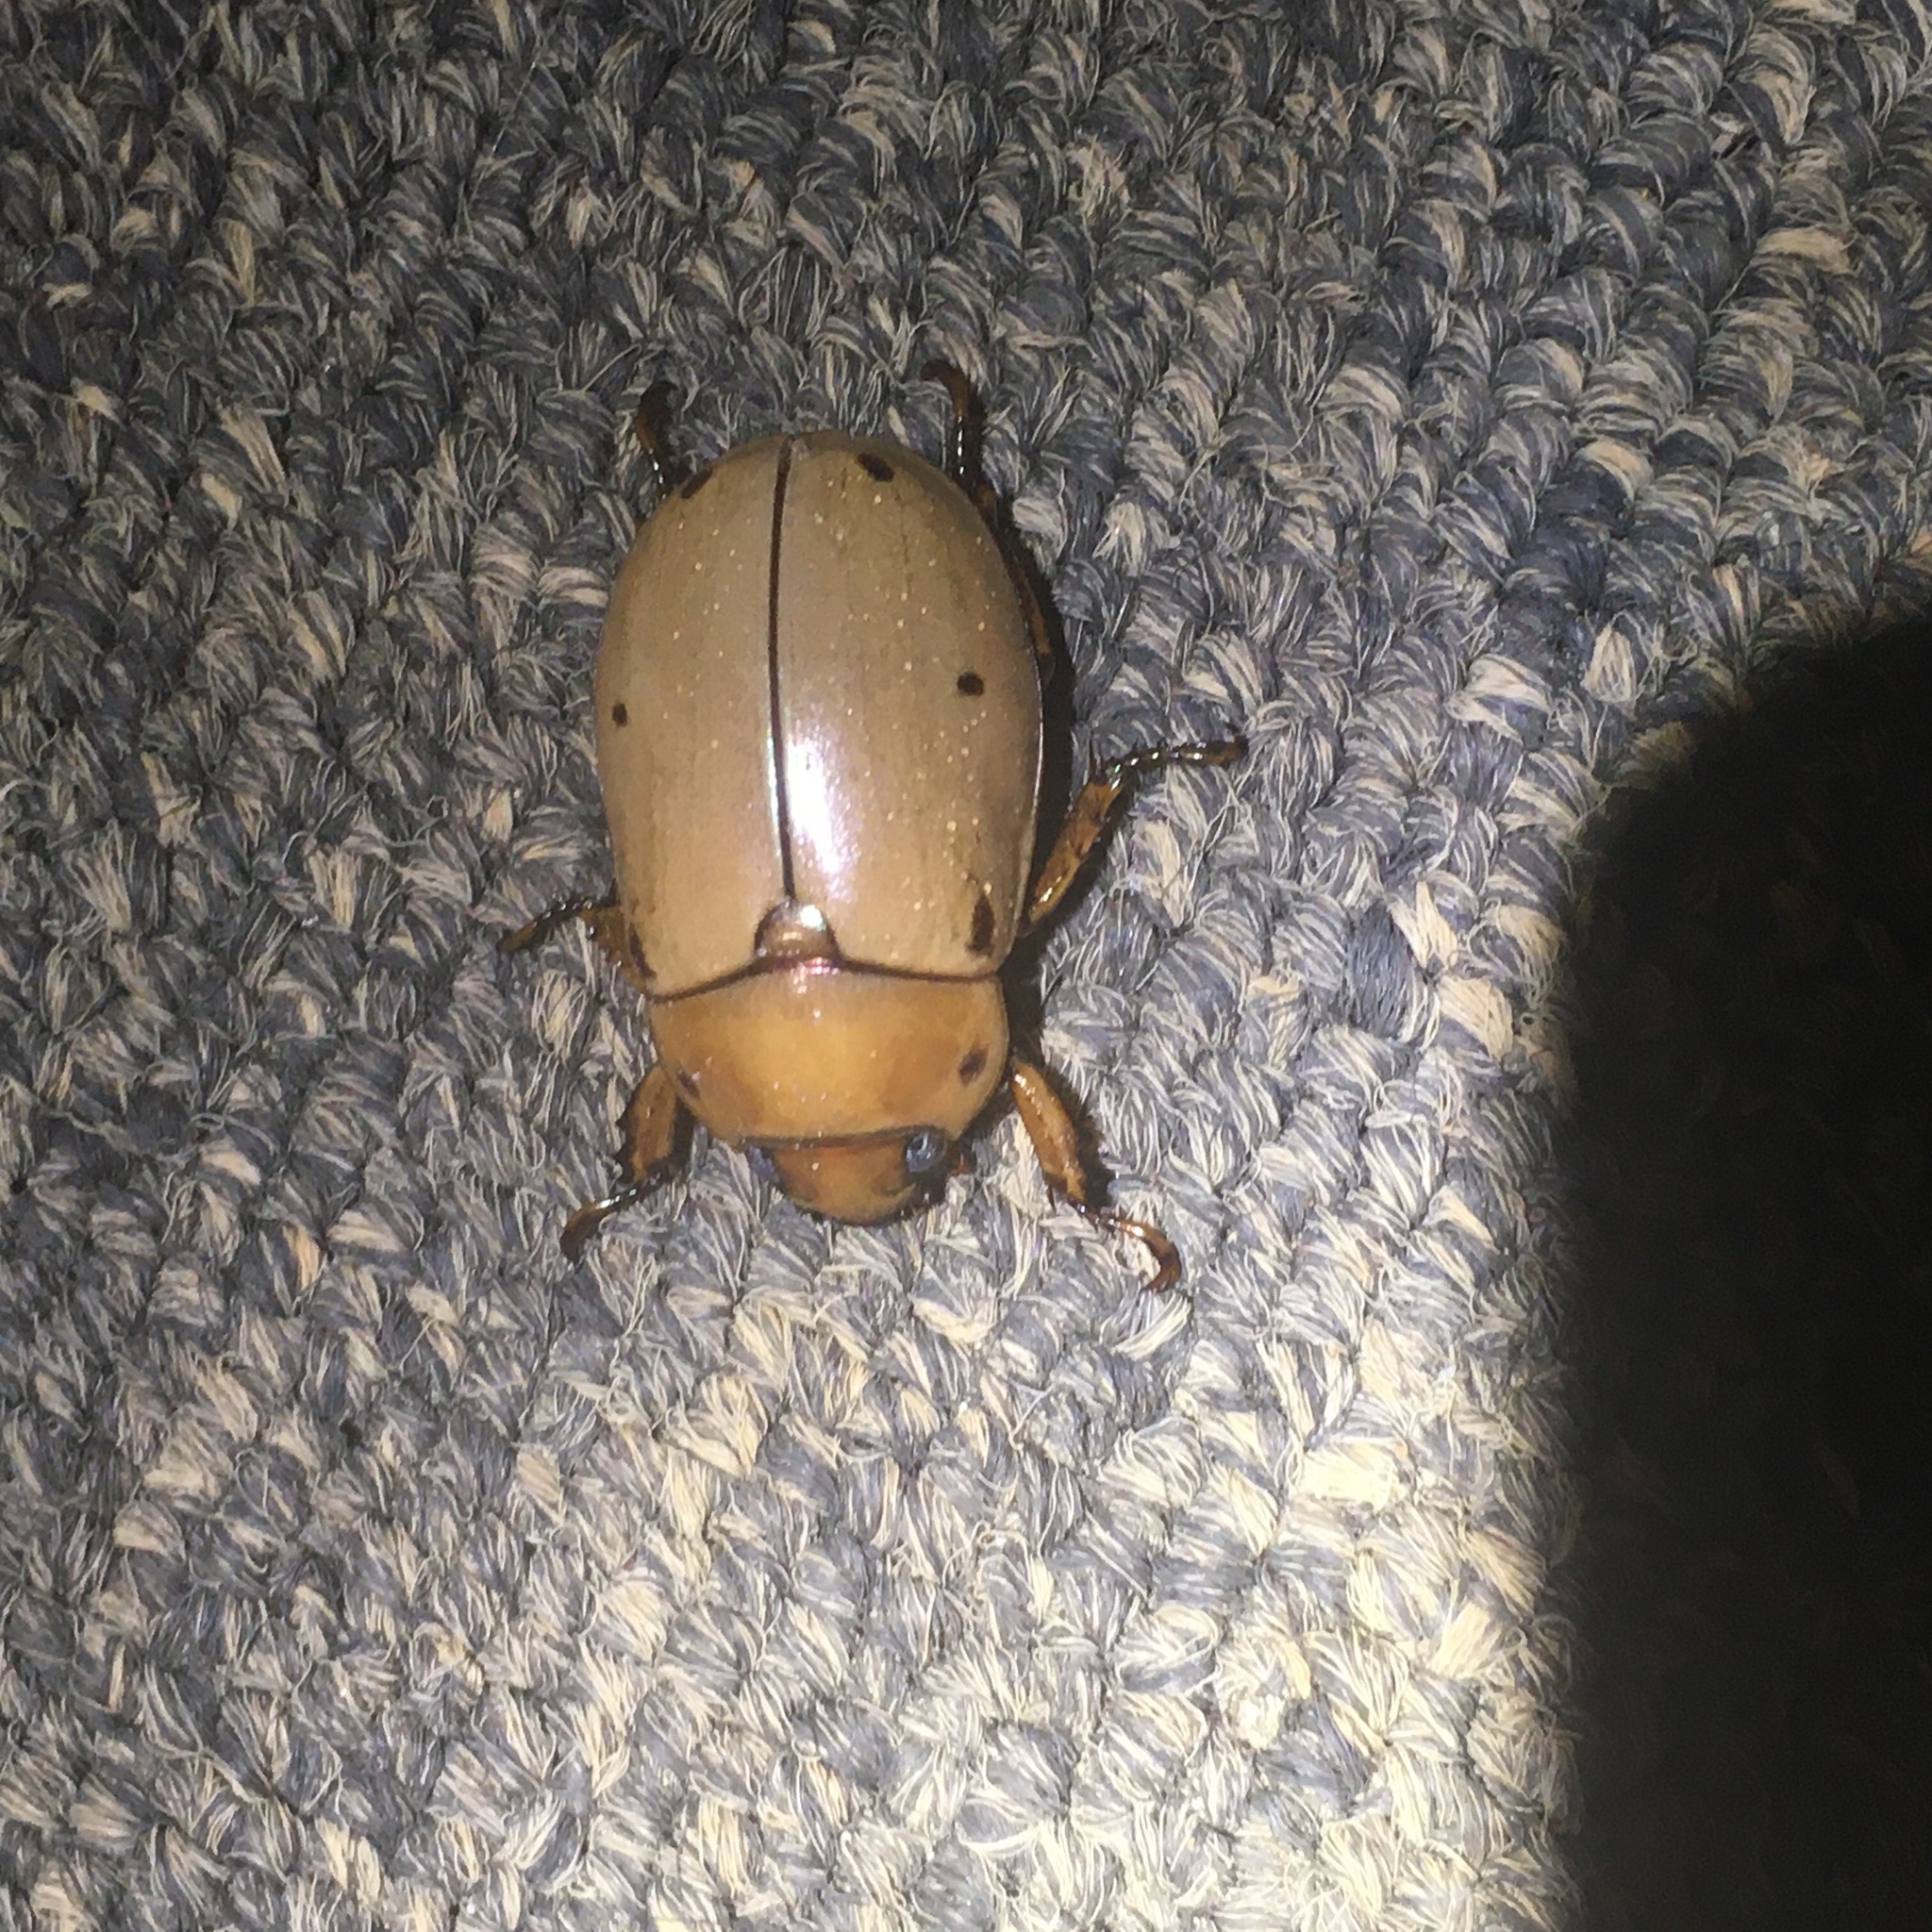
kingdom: Animalia
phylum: Arthropoda
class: Insecta
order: Coleoptera
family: Scarabaeidae
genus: Pelidnota
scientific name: Pelidnota punctata
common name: Grapevine beetle
